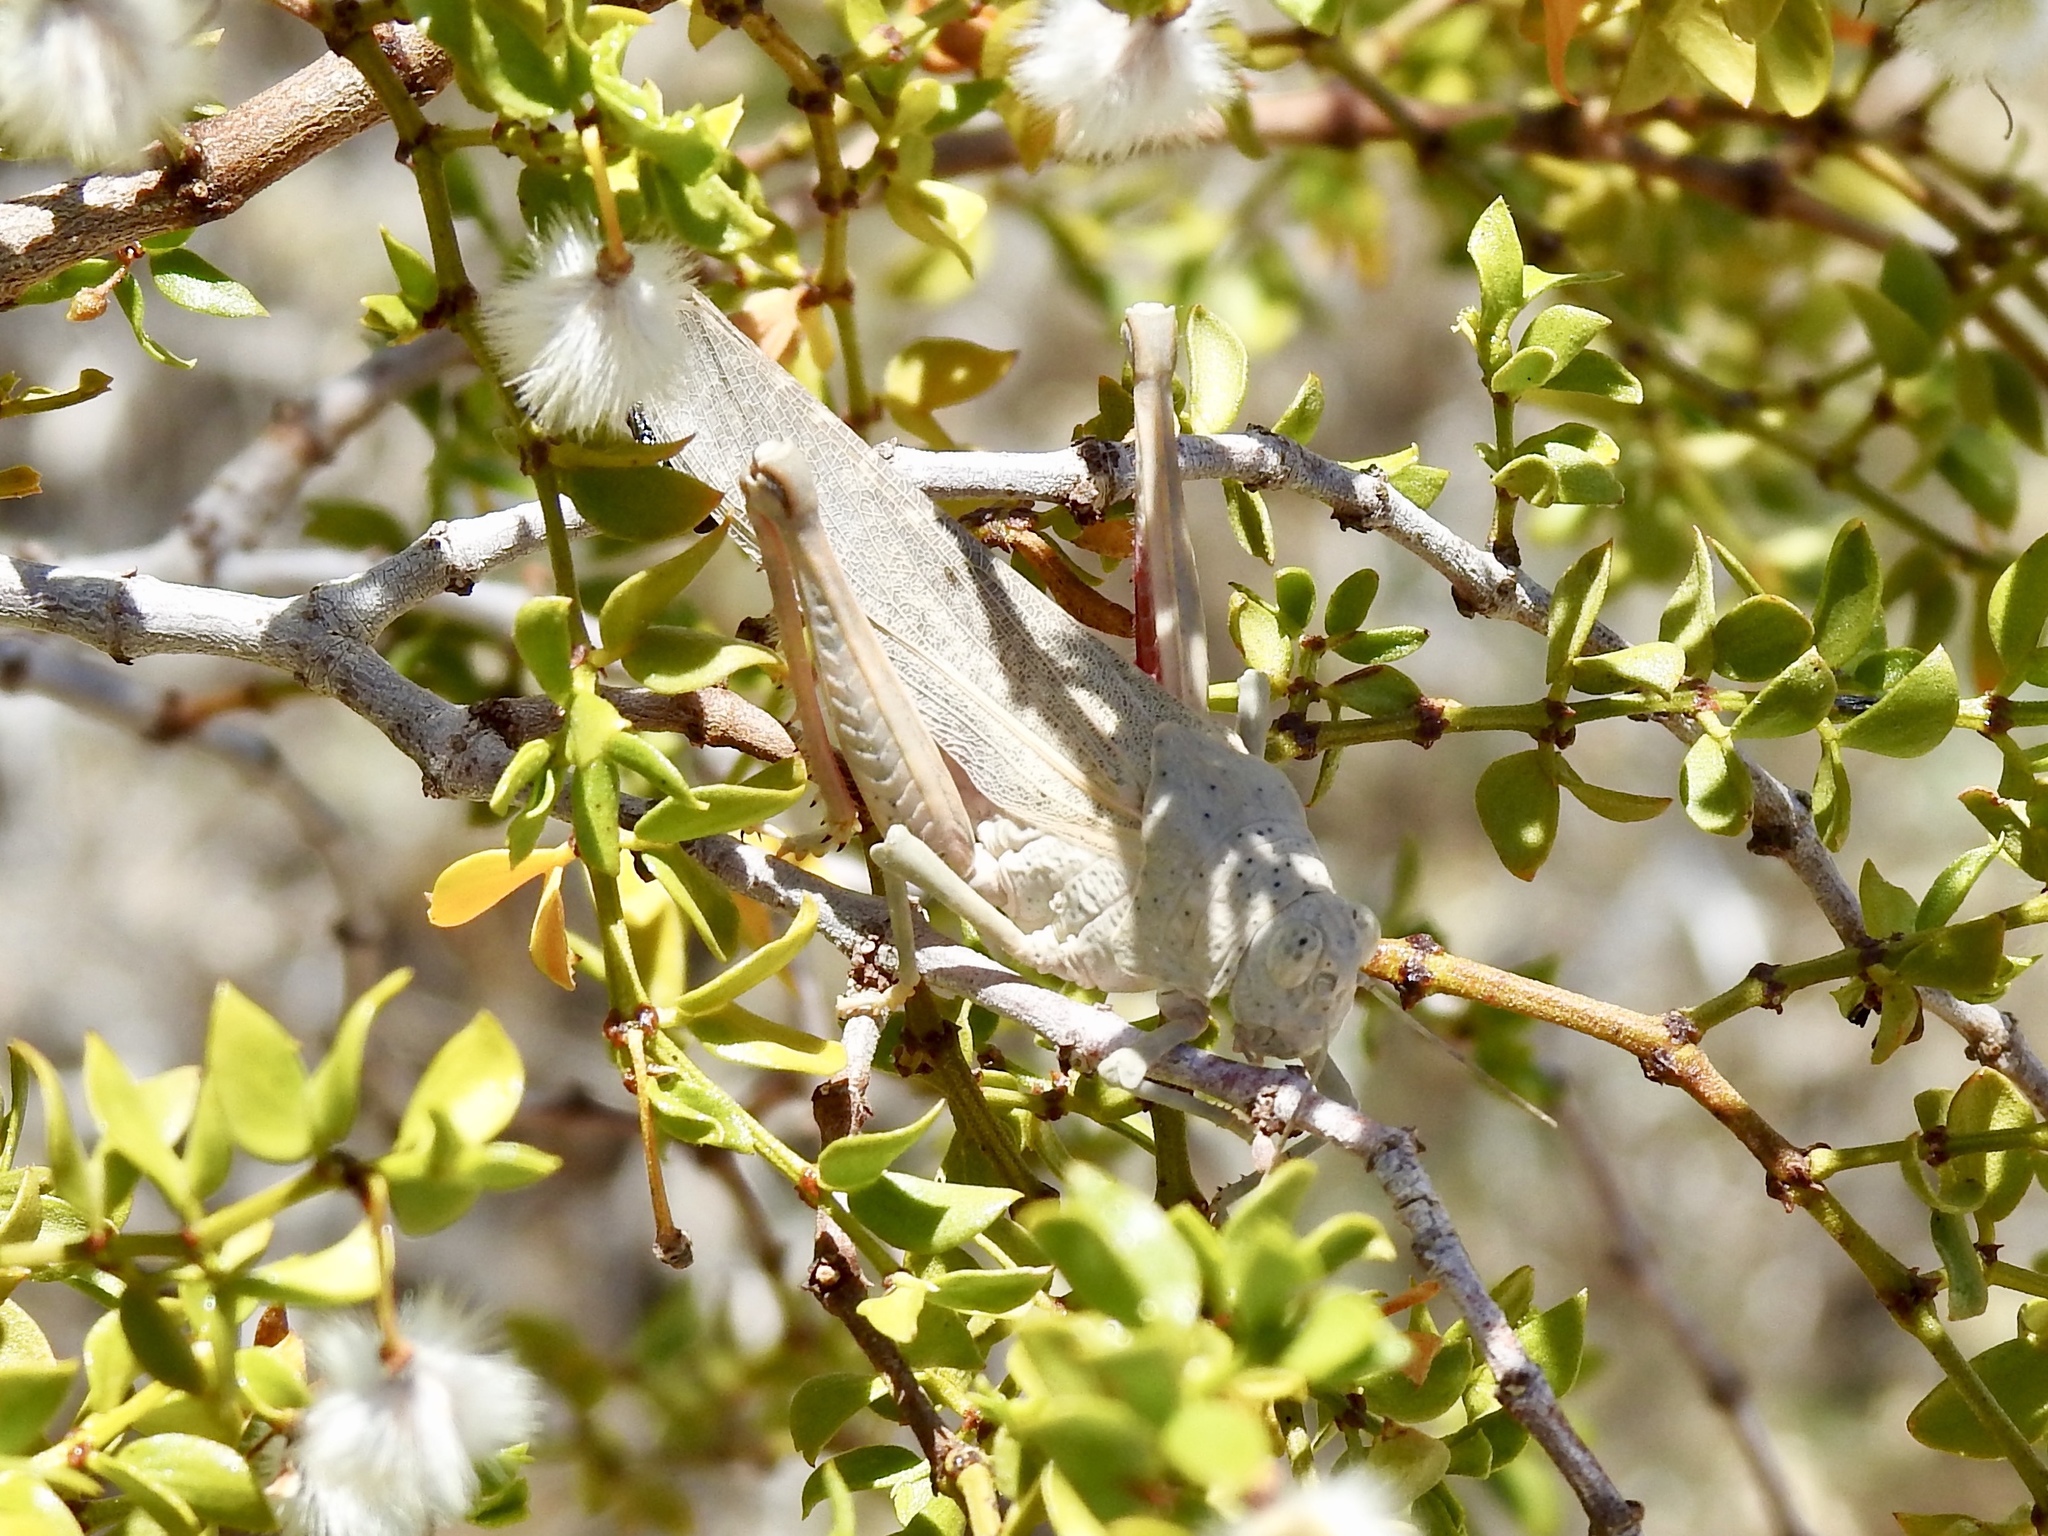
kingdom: Animalia
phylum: Arthropoda
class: Insecta
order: Orthoptera
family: Romaleidae
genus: Tytthotyle
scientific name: Tytthotyle maculata
